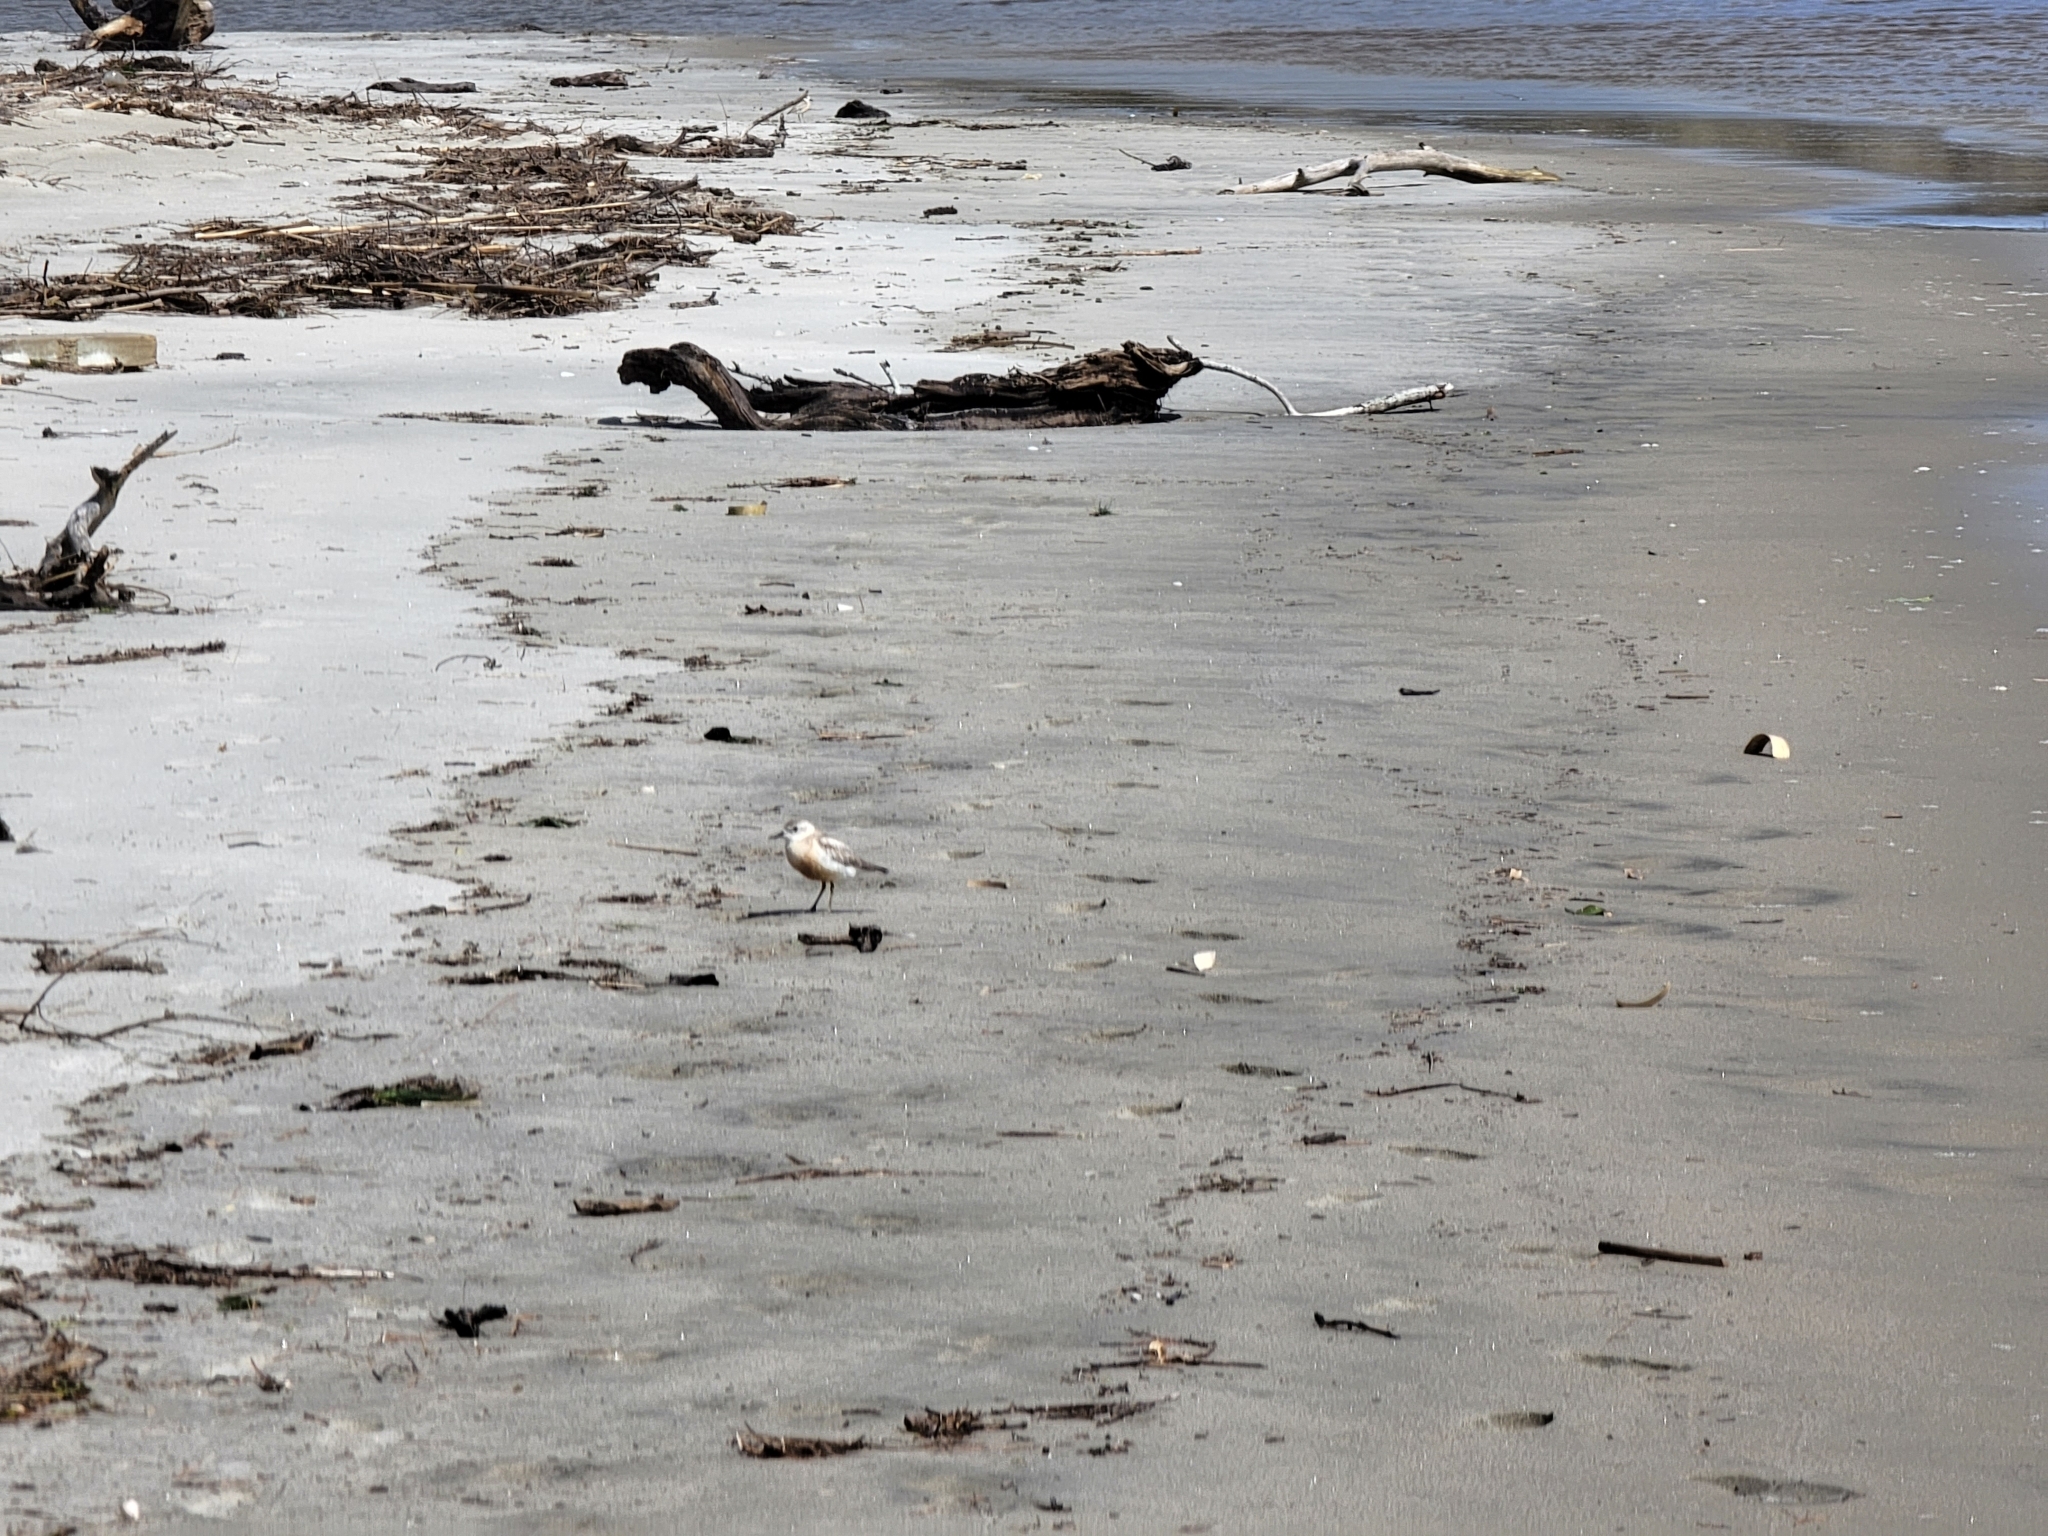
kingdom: Animalia
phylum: Chordata
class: Aves
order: Charadriiformes
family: Charadriidae
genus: Anarhynchus
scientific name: Anarhynchus
